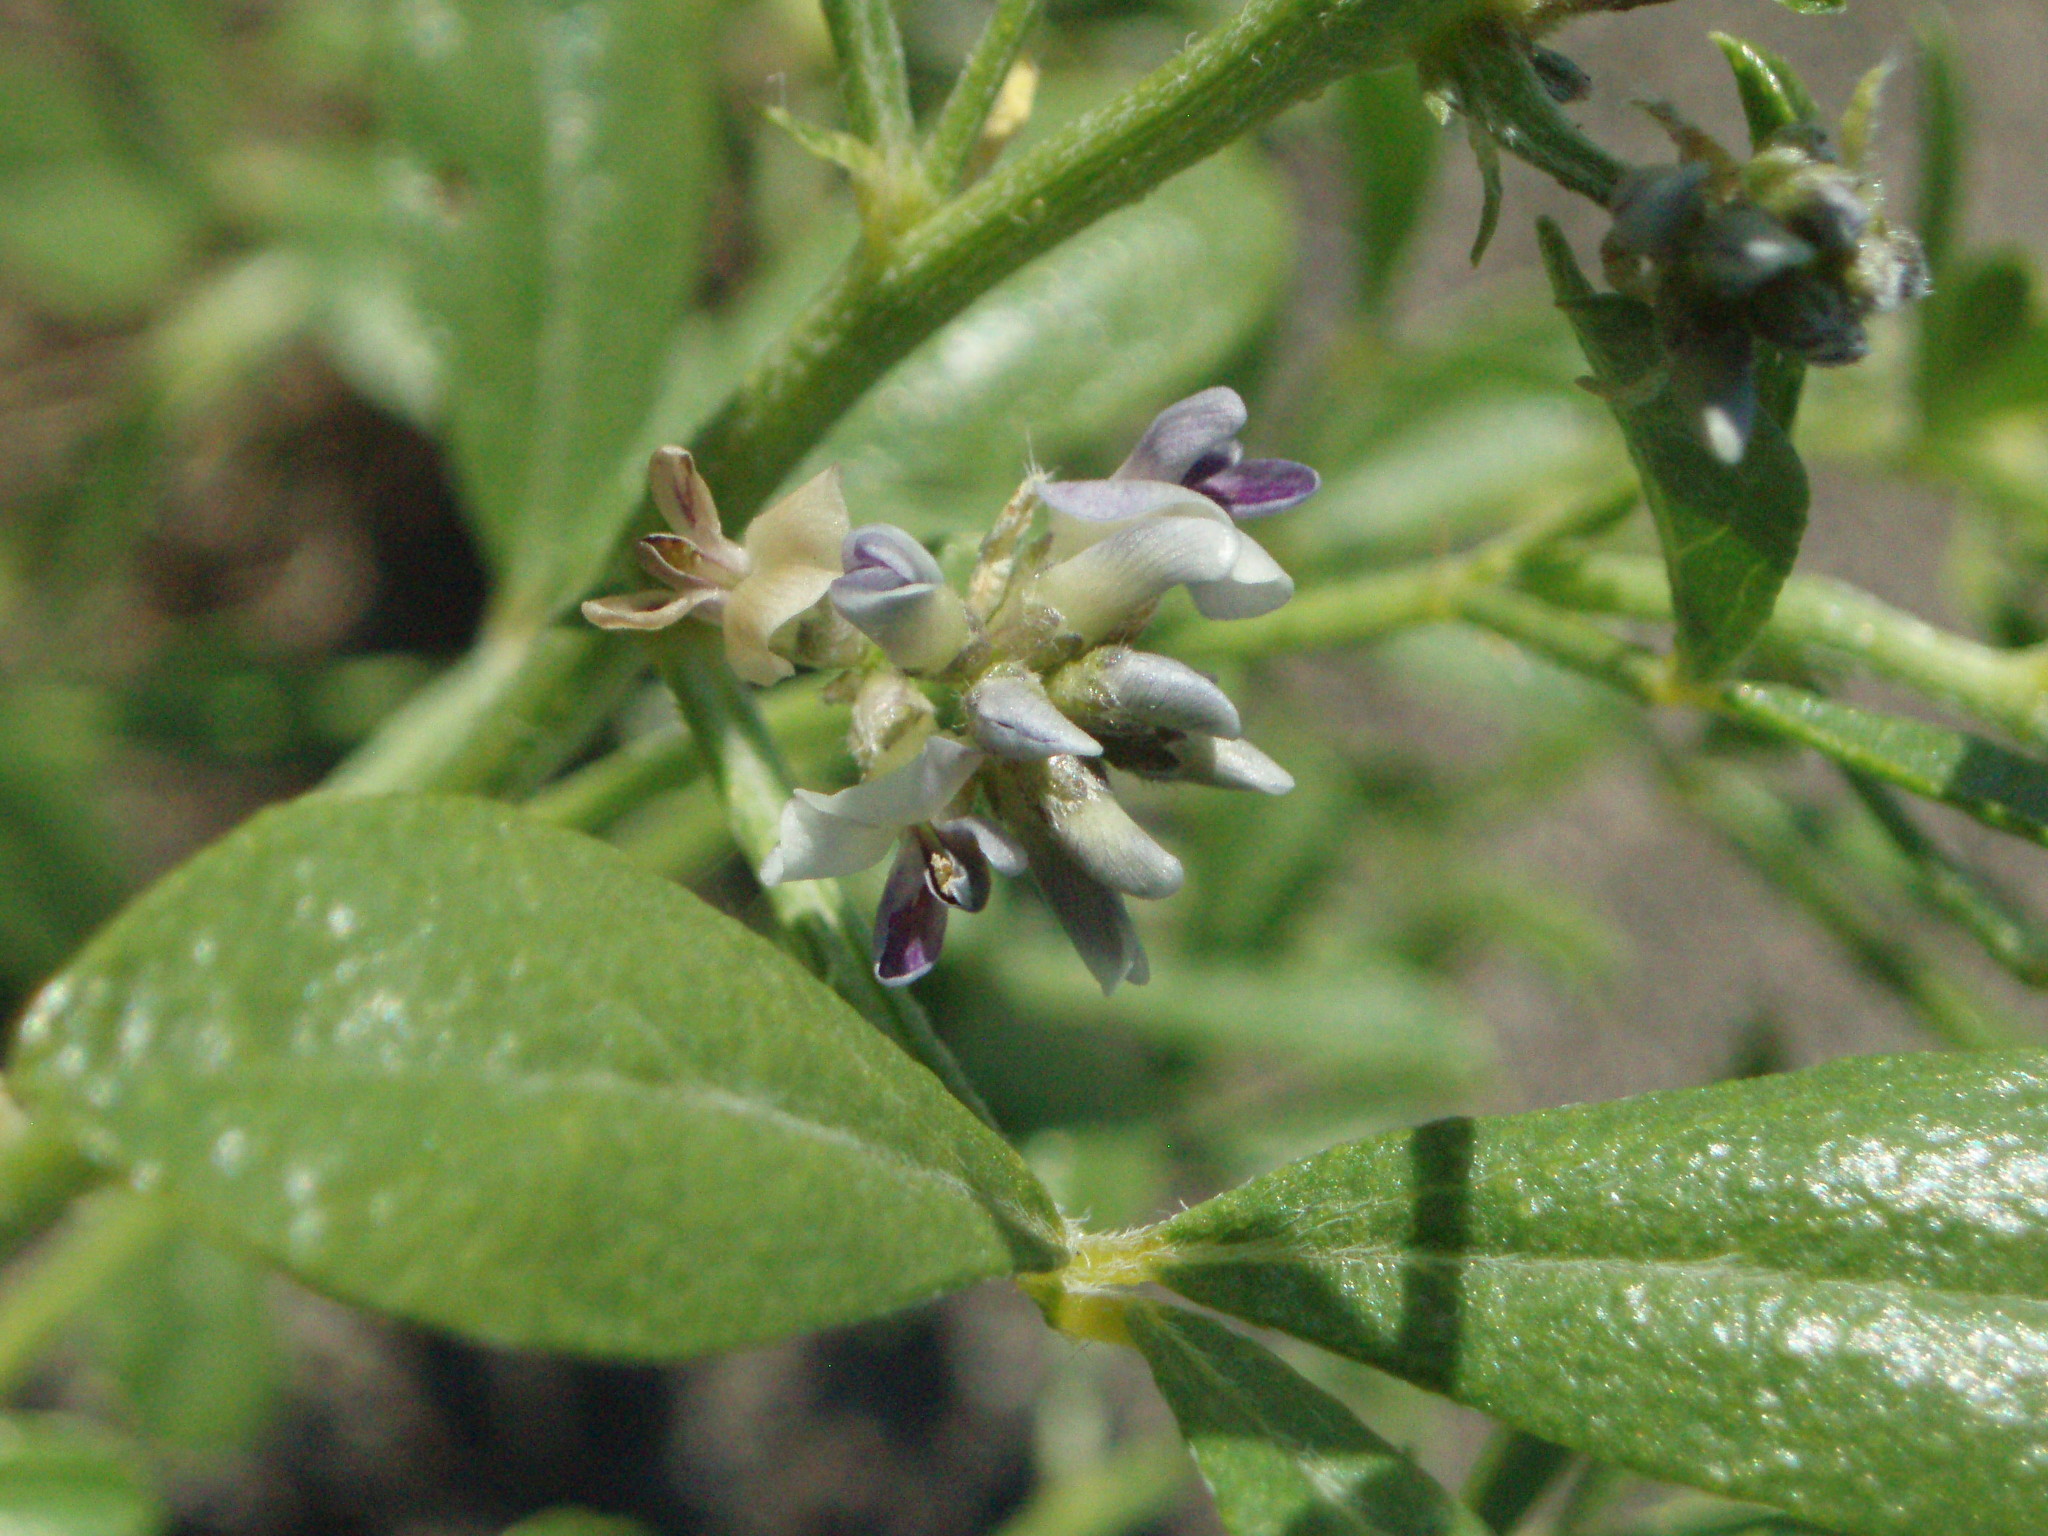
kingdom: Plantae
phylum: Tracheophyta
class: Magnoliopsida
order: Fabales
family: Fabaceae
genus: Ladeania
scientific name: Ladeania lanceolata
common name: Dune scurf-pea
